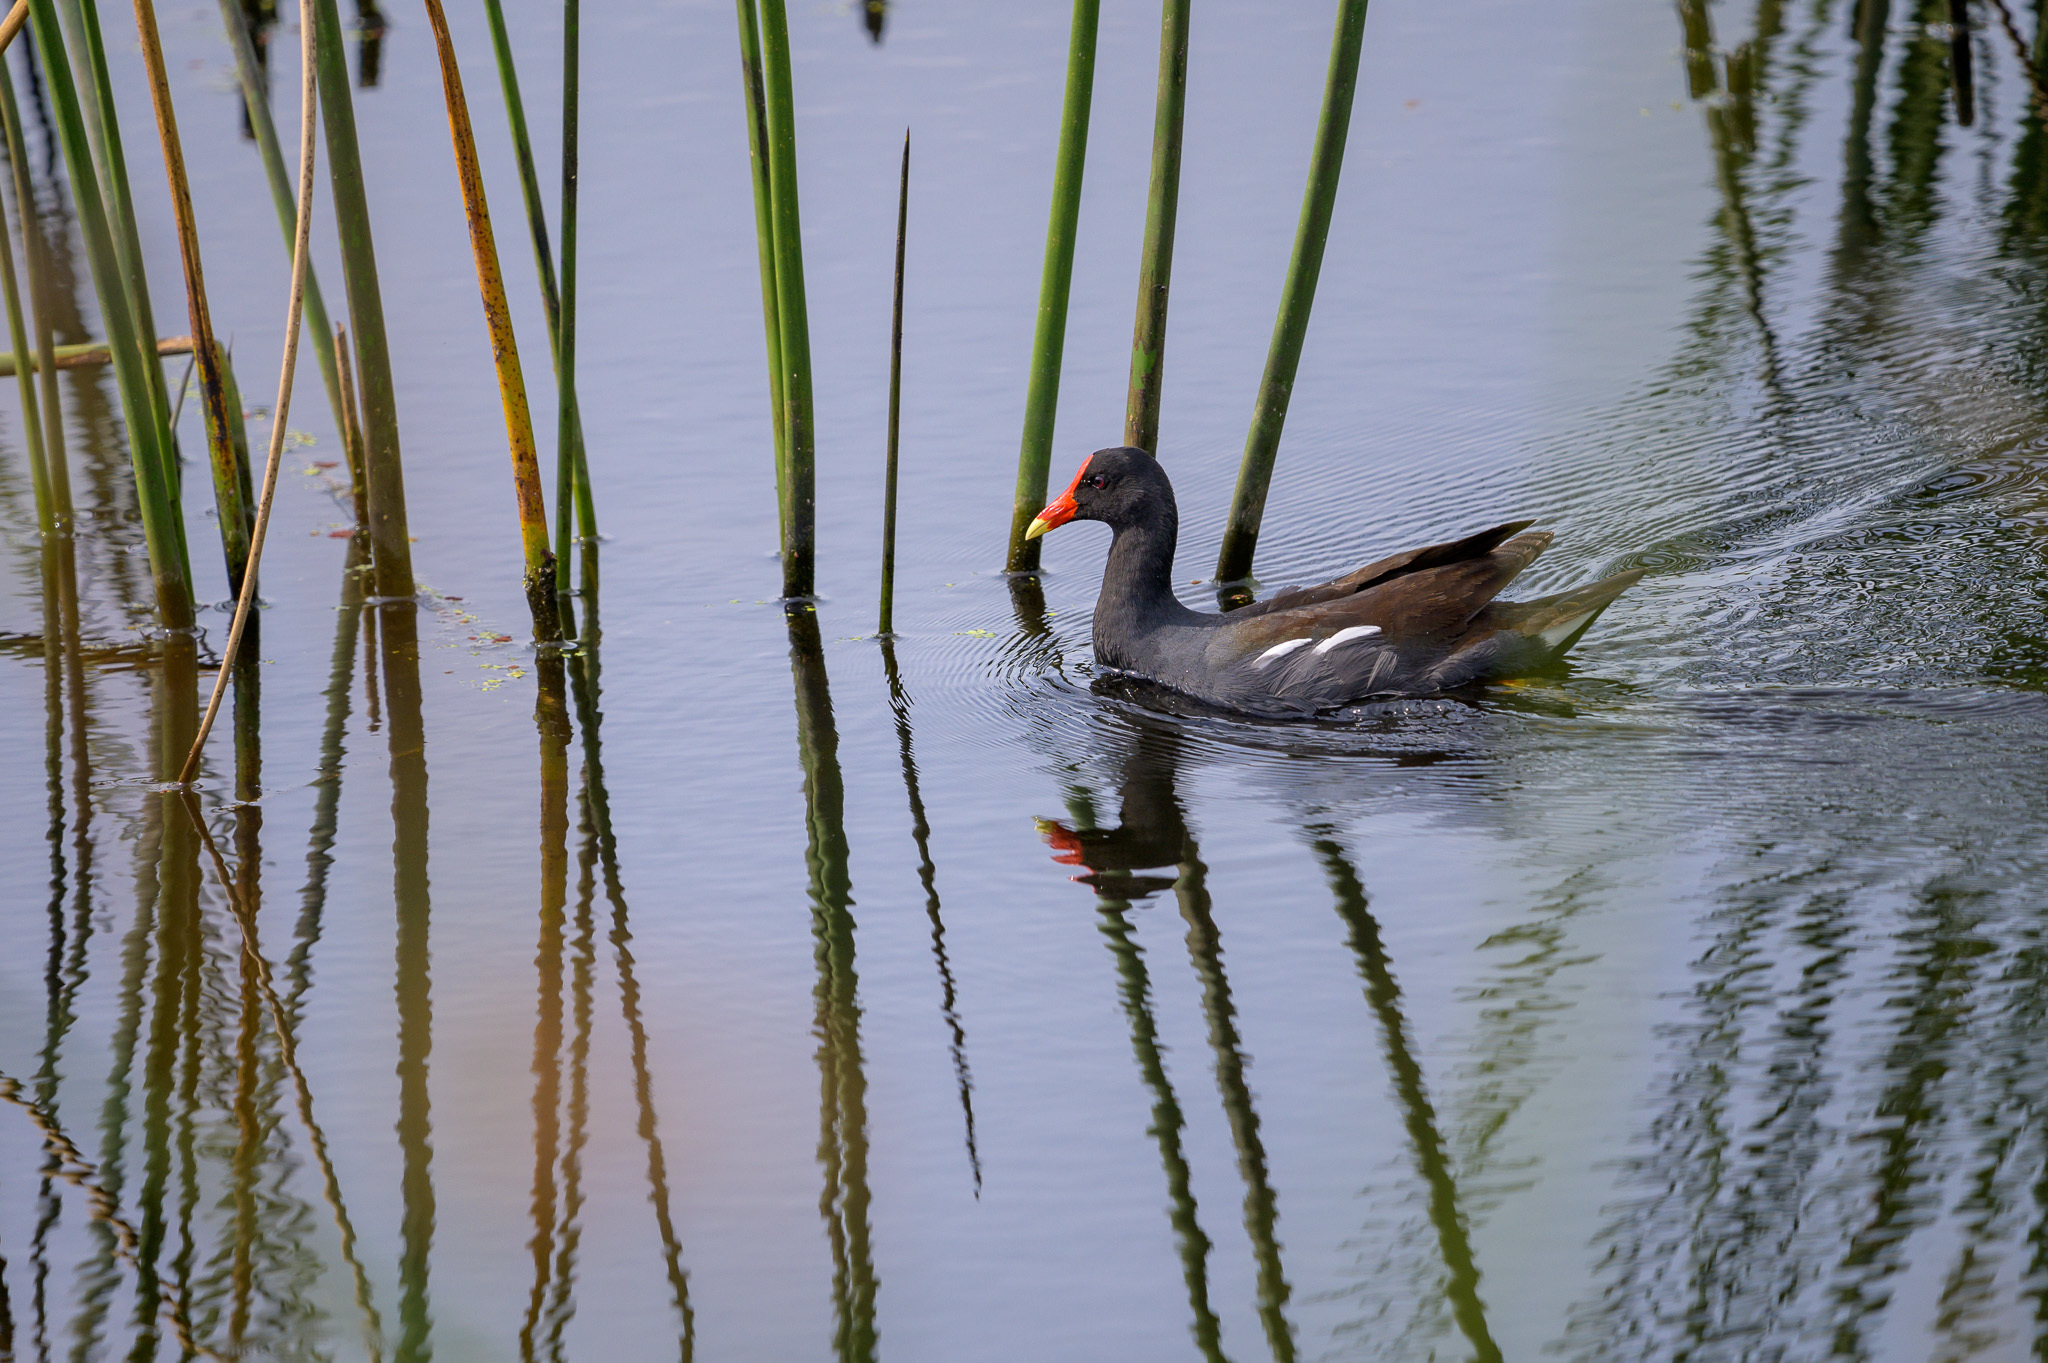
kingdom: Animalia
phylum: Chordata
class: Aves
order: Gruiformes
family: Rallidae
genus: Gallinula
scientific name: Gallinula chloropus
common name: Common moorhen
